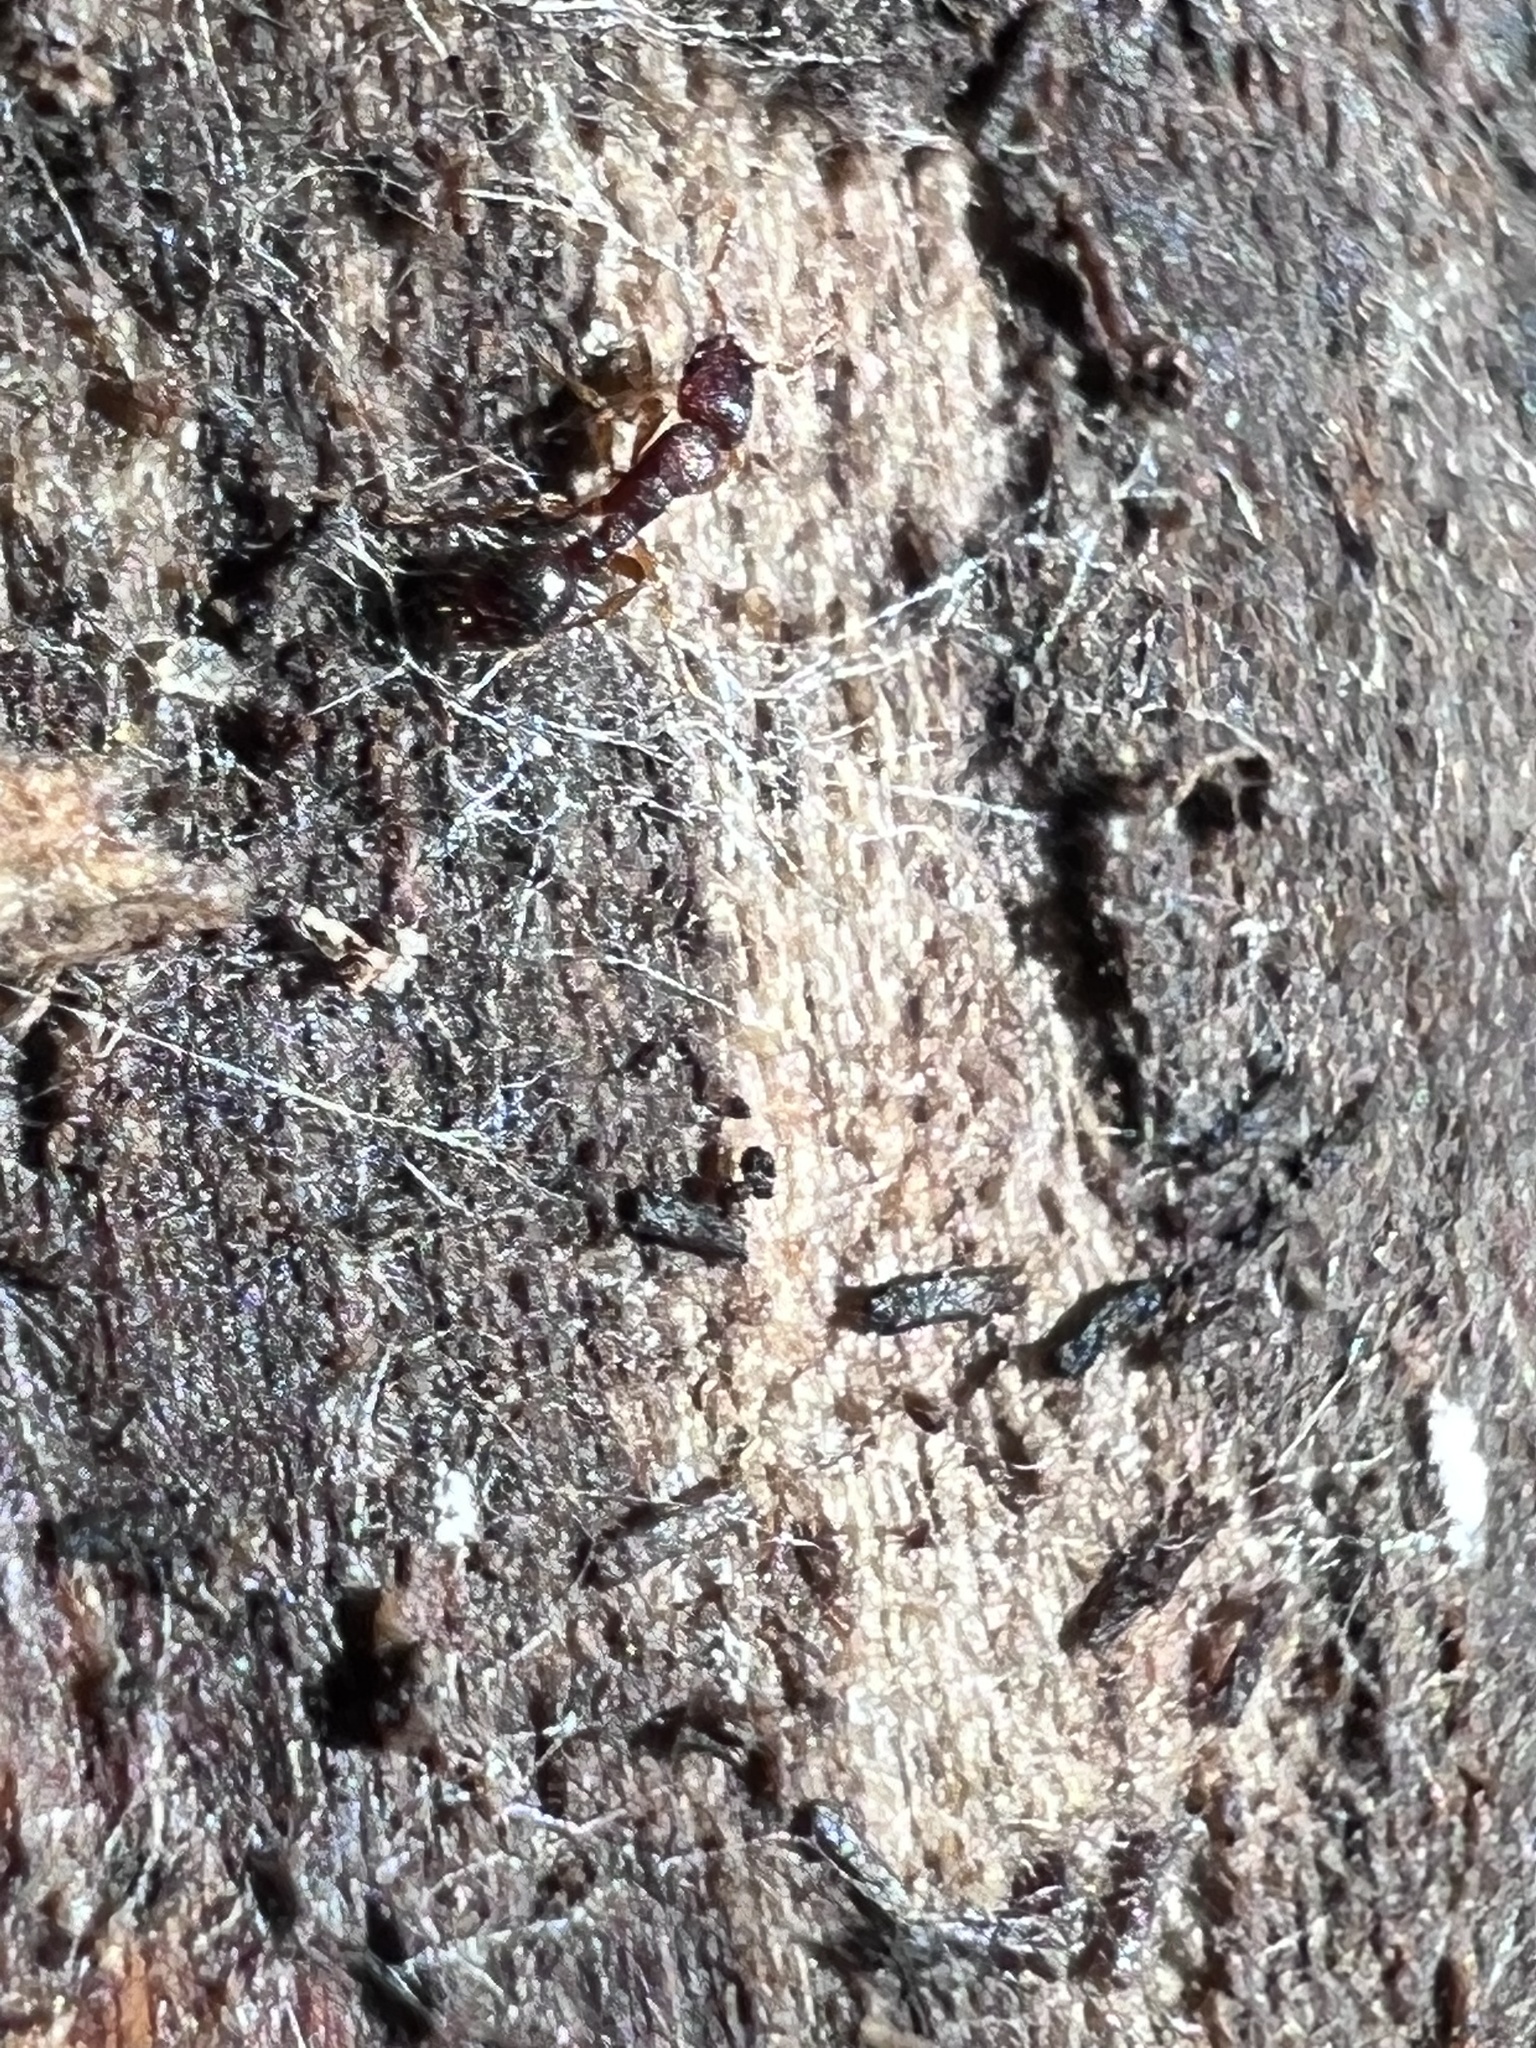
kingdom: Animalia
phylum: Arthropoda
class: Insecta
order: Hymenoptera
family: Formicidae
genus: Vollenhovia
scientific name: Vollenhovia emeryi
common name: Ant
